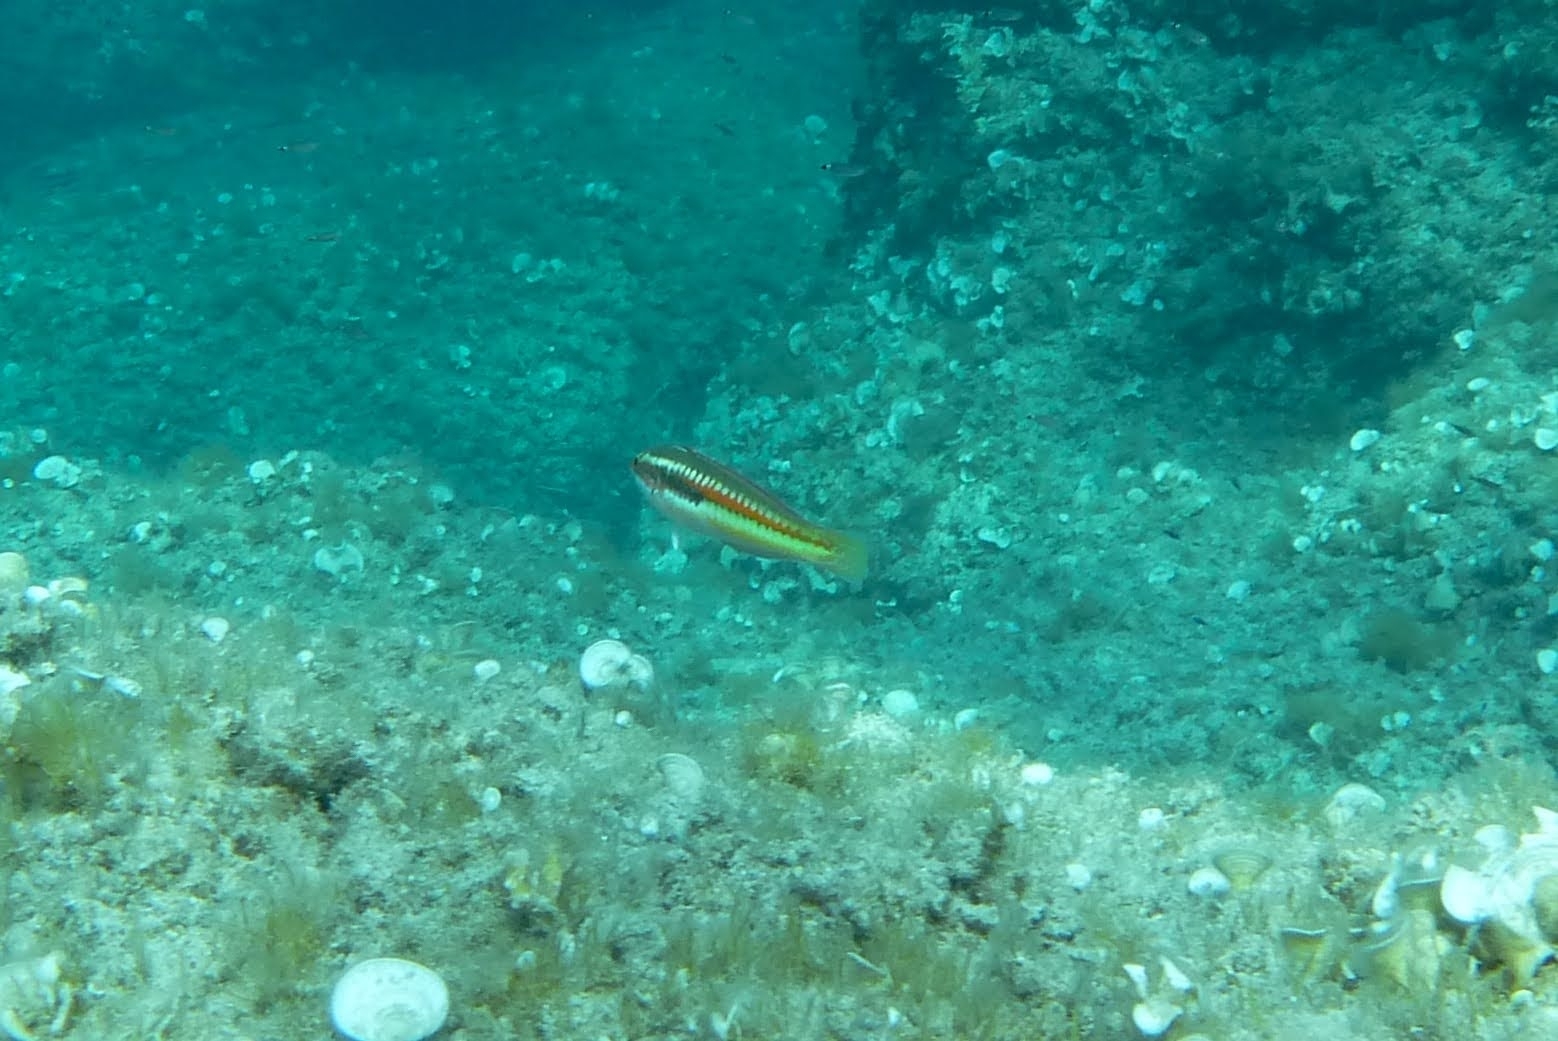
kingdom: Animalia
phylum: Chordata
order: Perciformes
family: Labridae
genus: Coris
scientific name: Coris julis
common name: Rainbow wrasse
